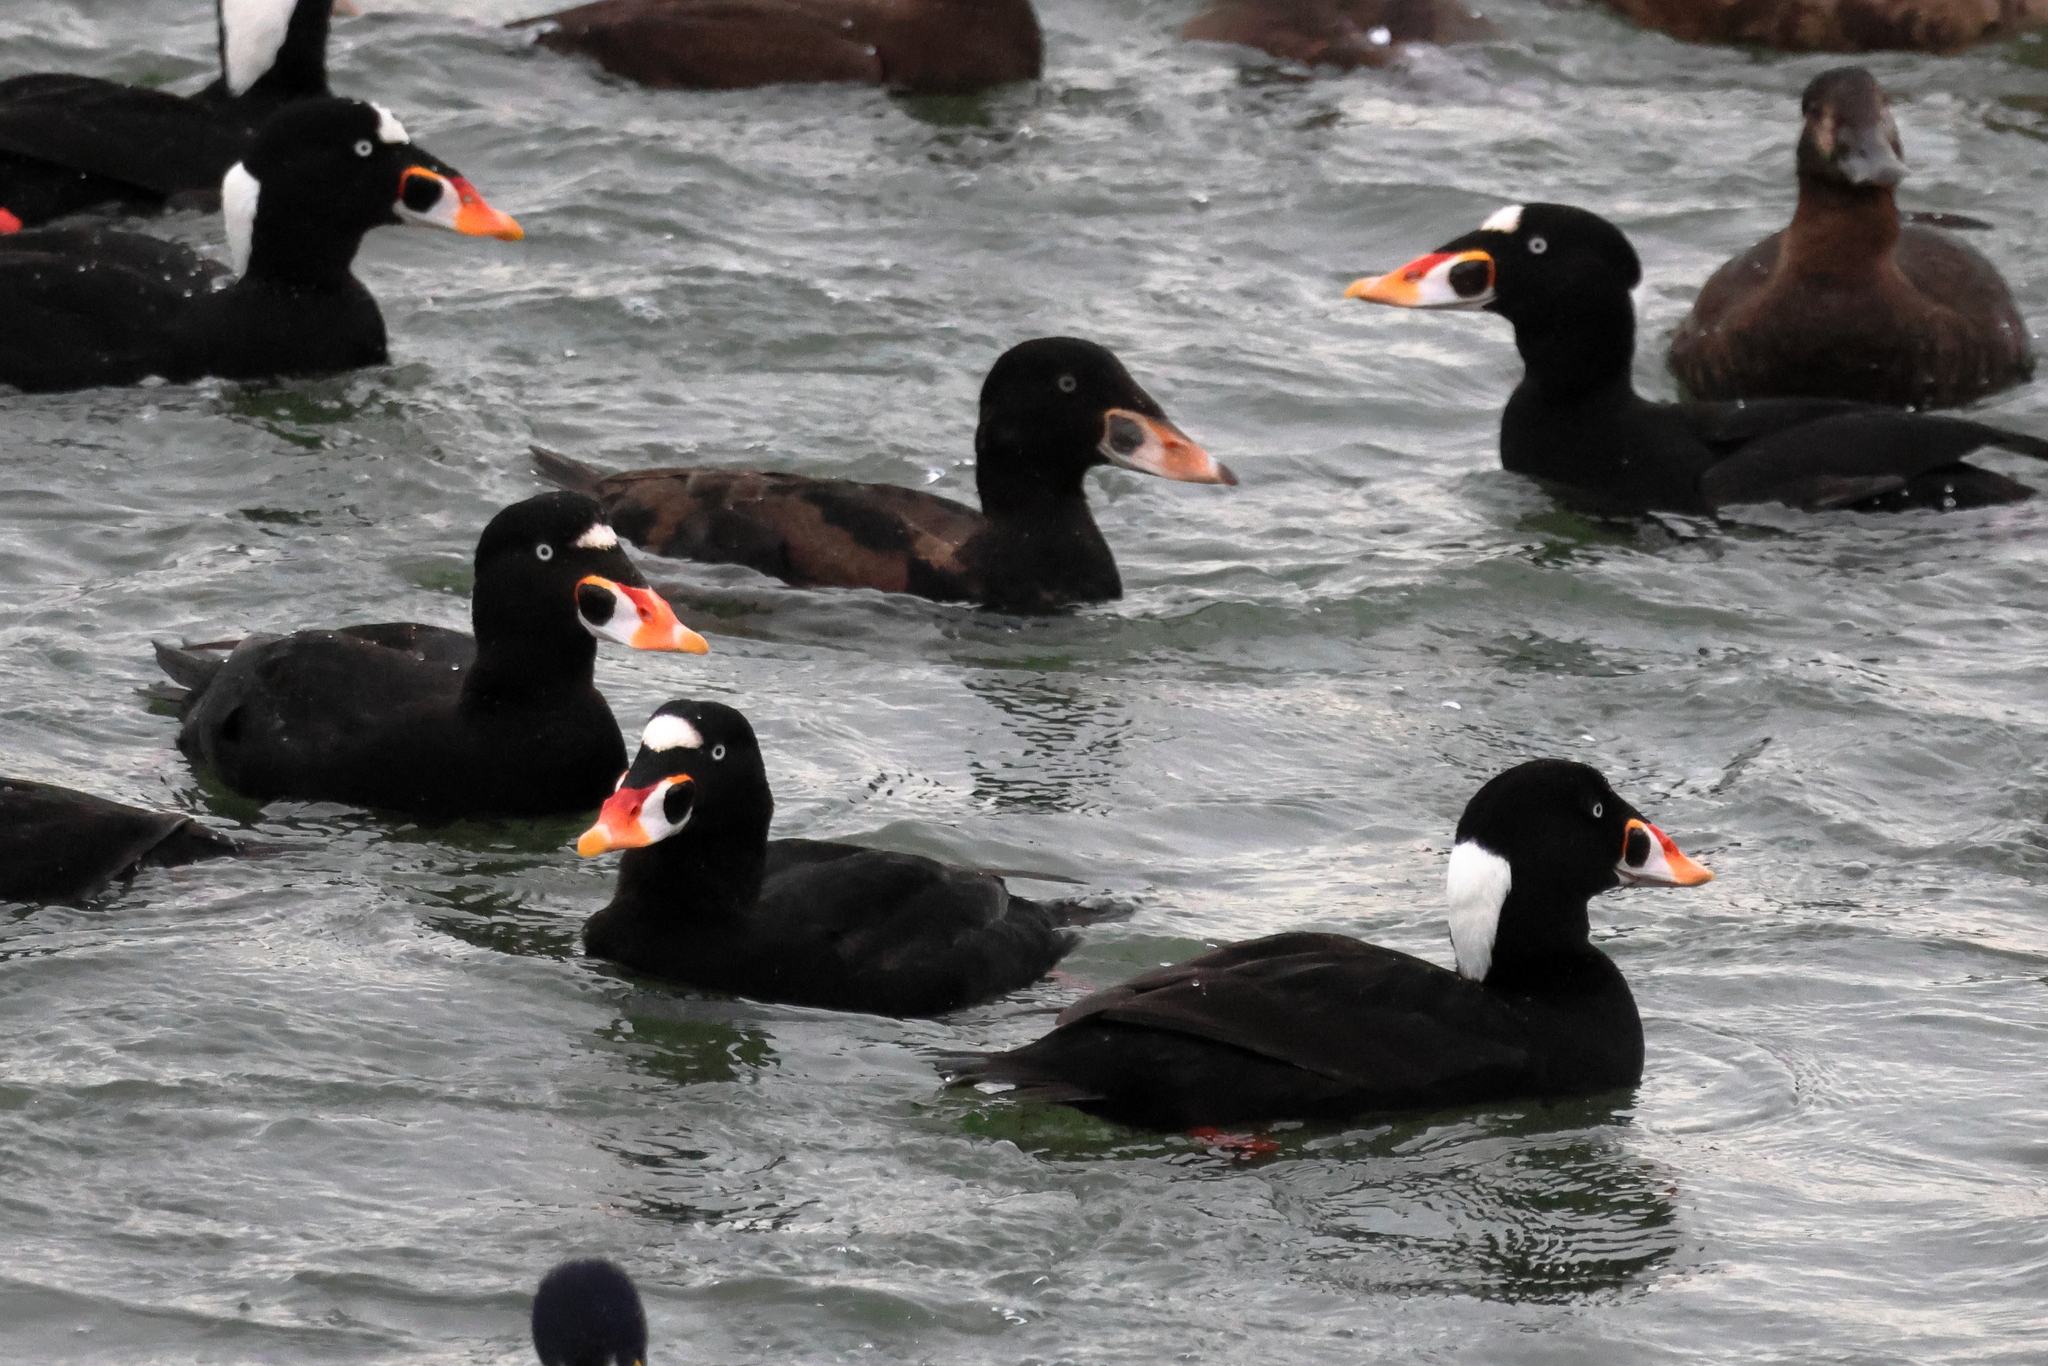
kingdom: Animalia
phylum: Chordata
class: Aves
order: Anseriformes
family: Anatidae
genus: Melanitta
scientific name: Melanitta perspicillata
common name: Surf scoter
